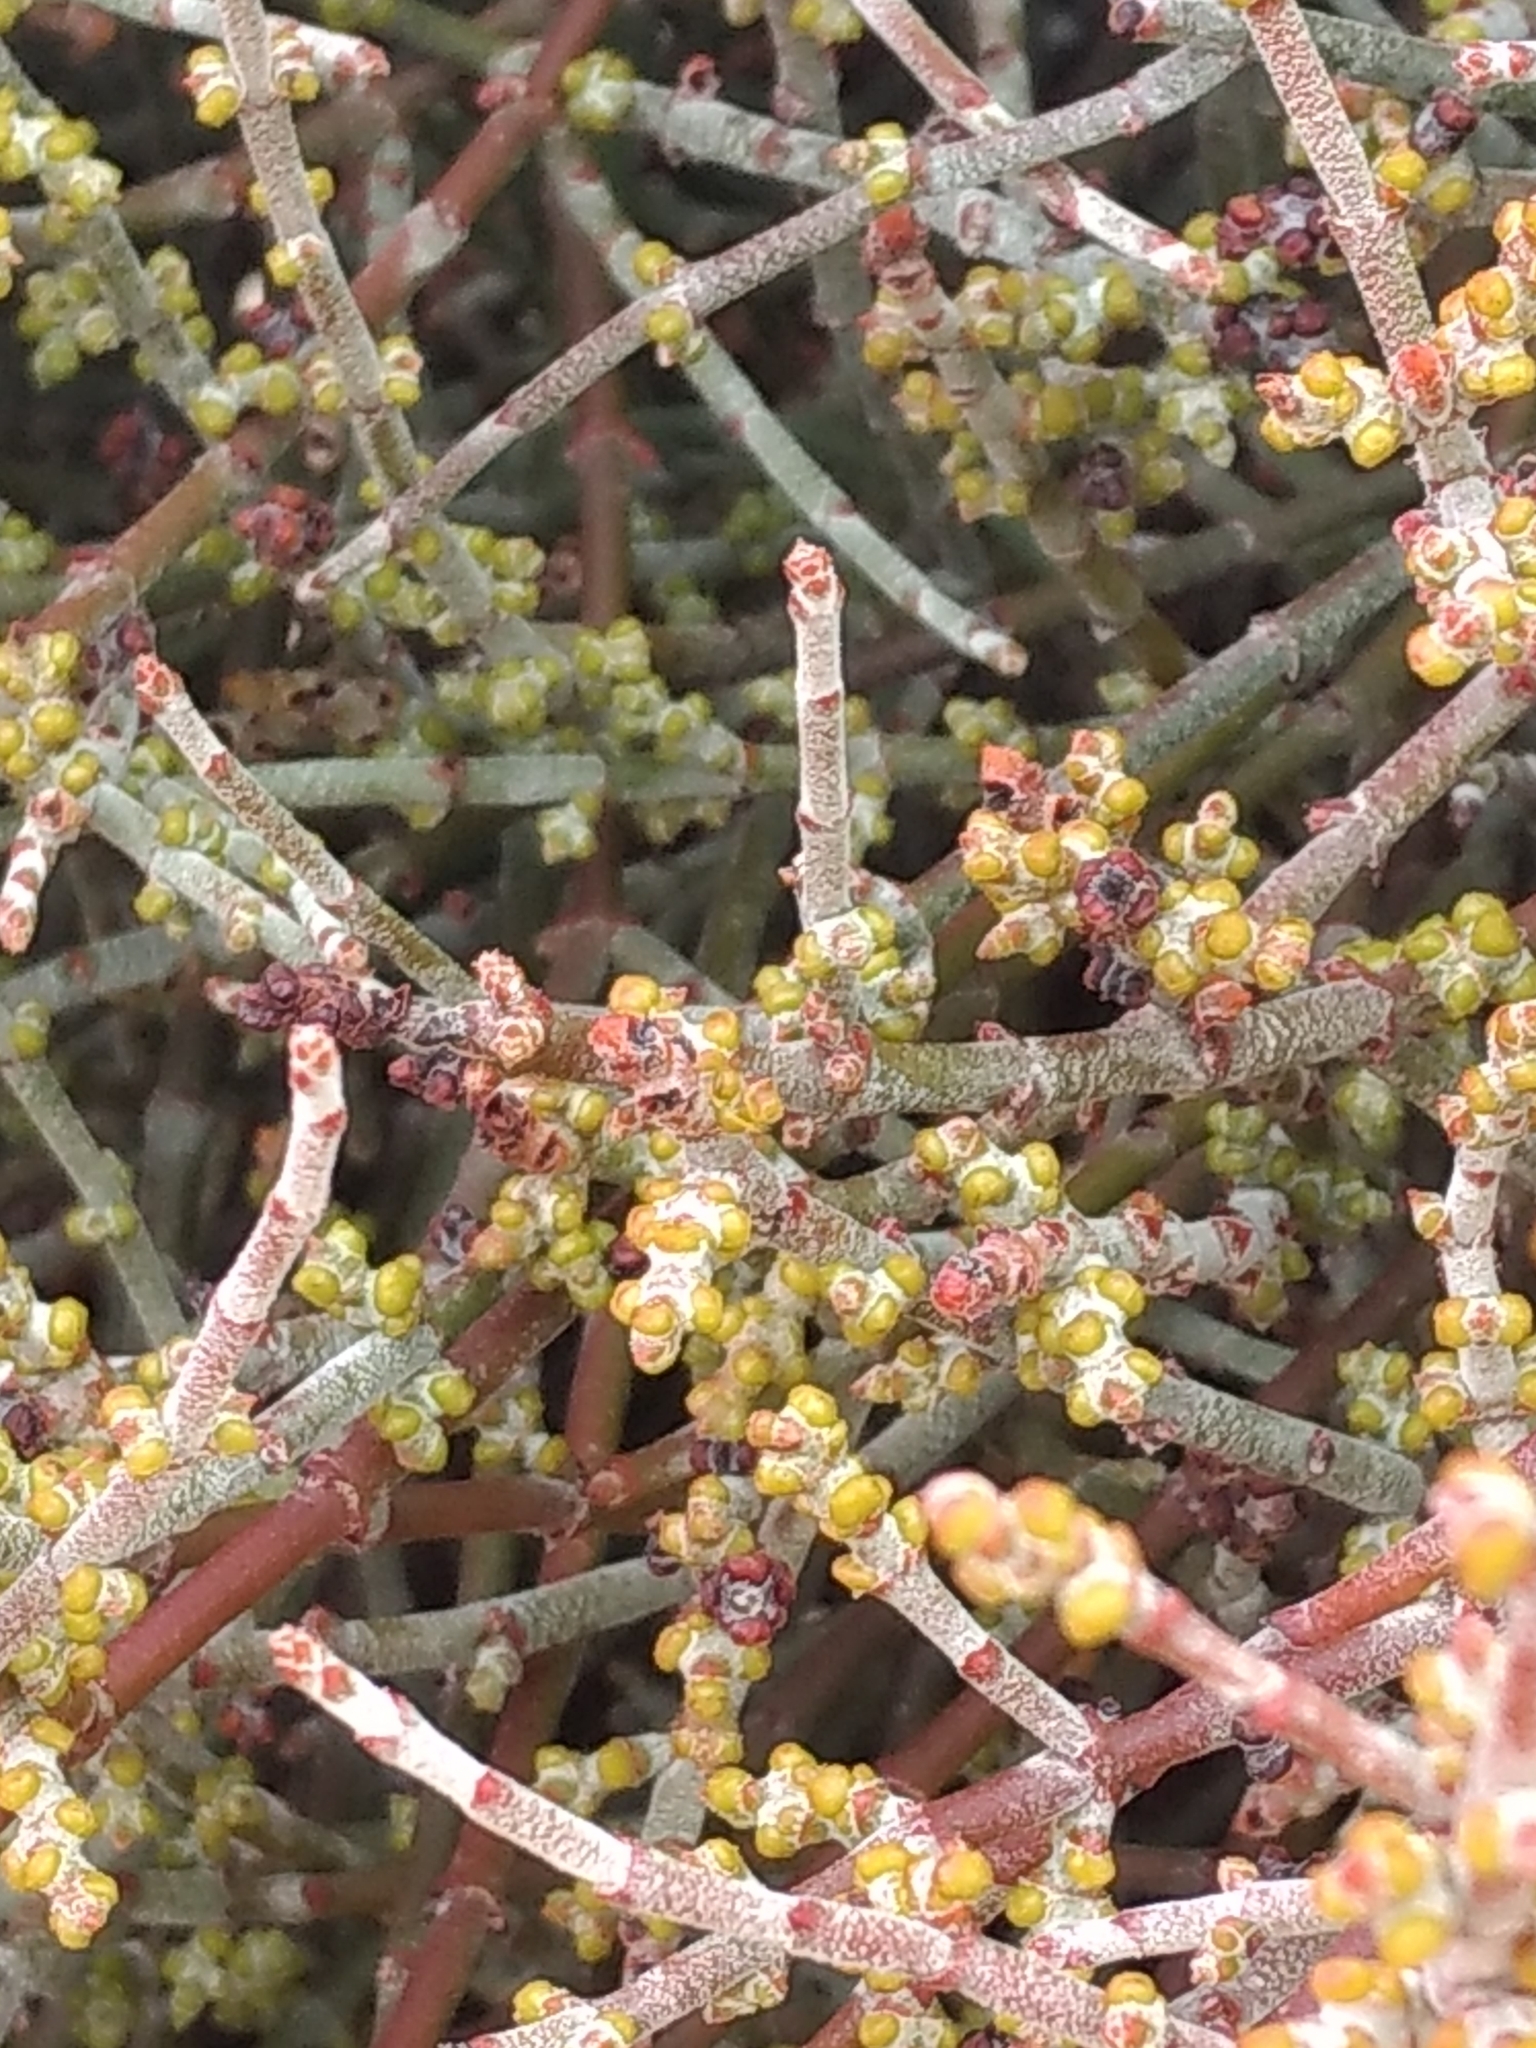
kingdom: Plantae
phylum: Tracheophyta
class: Magnoliopsida
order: Santalales
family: Viscaceae
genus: Phoradendron
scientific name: Phoradendron californicum
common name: Acacia mistletoe
